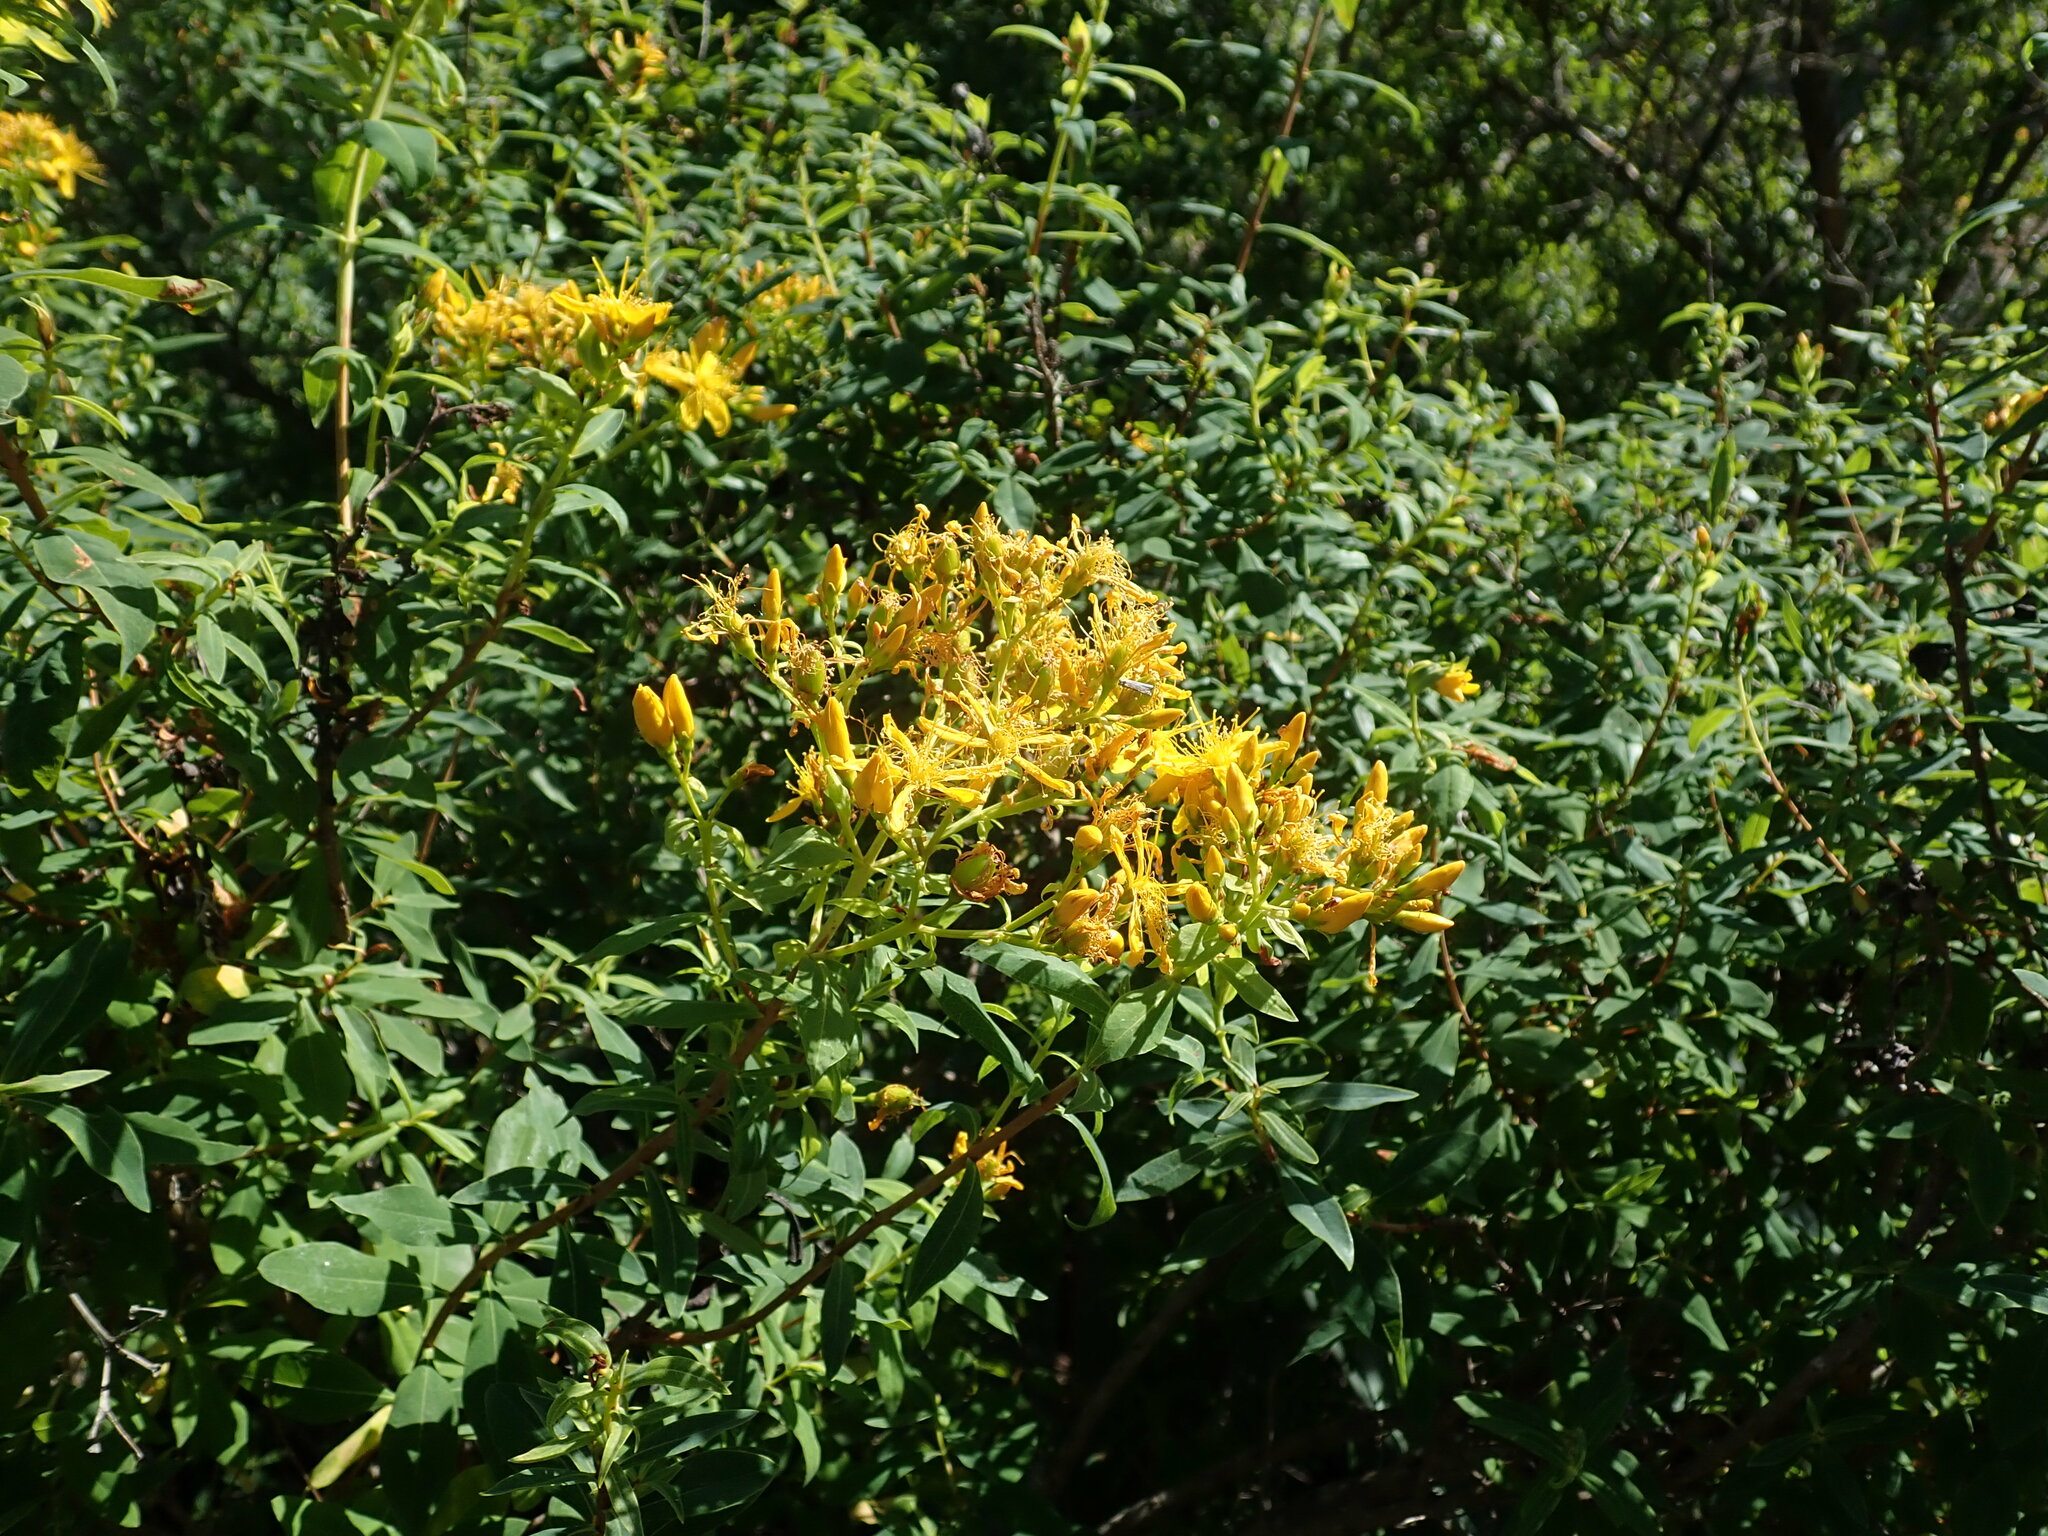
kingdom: Plantae
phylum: Tracheophyta
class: Magnoliopsida
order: Malpighiales
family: Hypericaceae
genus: Hypericum
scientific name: Hypericum canariense
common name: Canary island st. johnswort
